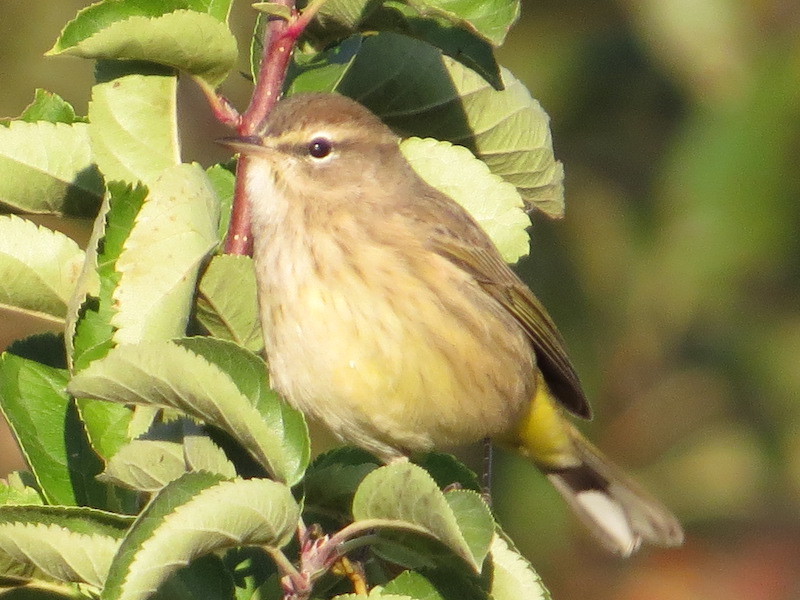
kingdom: Animalia
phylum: Chordata
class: Aves
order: Passeriformes
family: Parulidae
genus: Setophaga
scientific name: Setophaga palmarum
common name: Palm warbler
